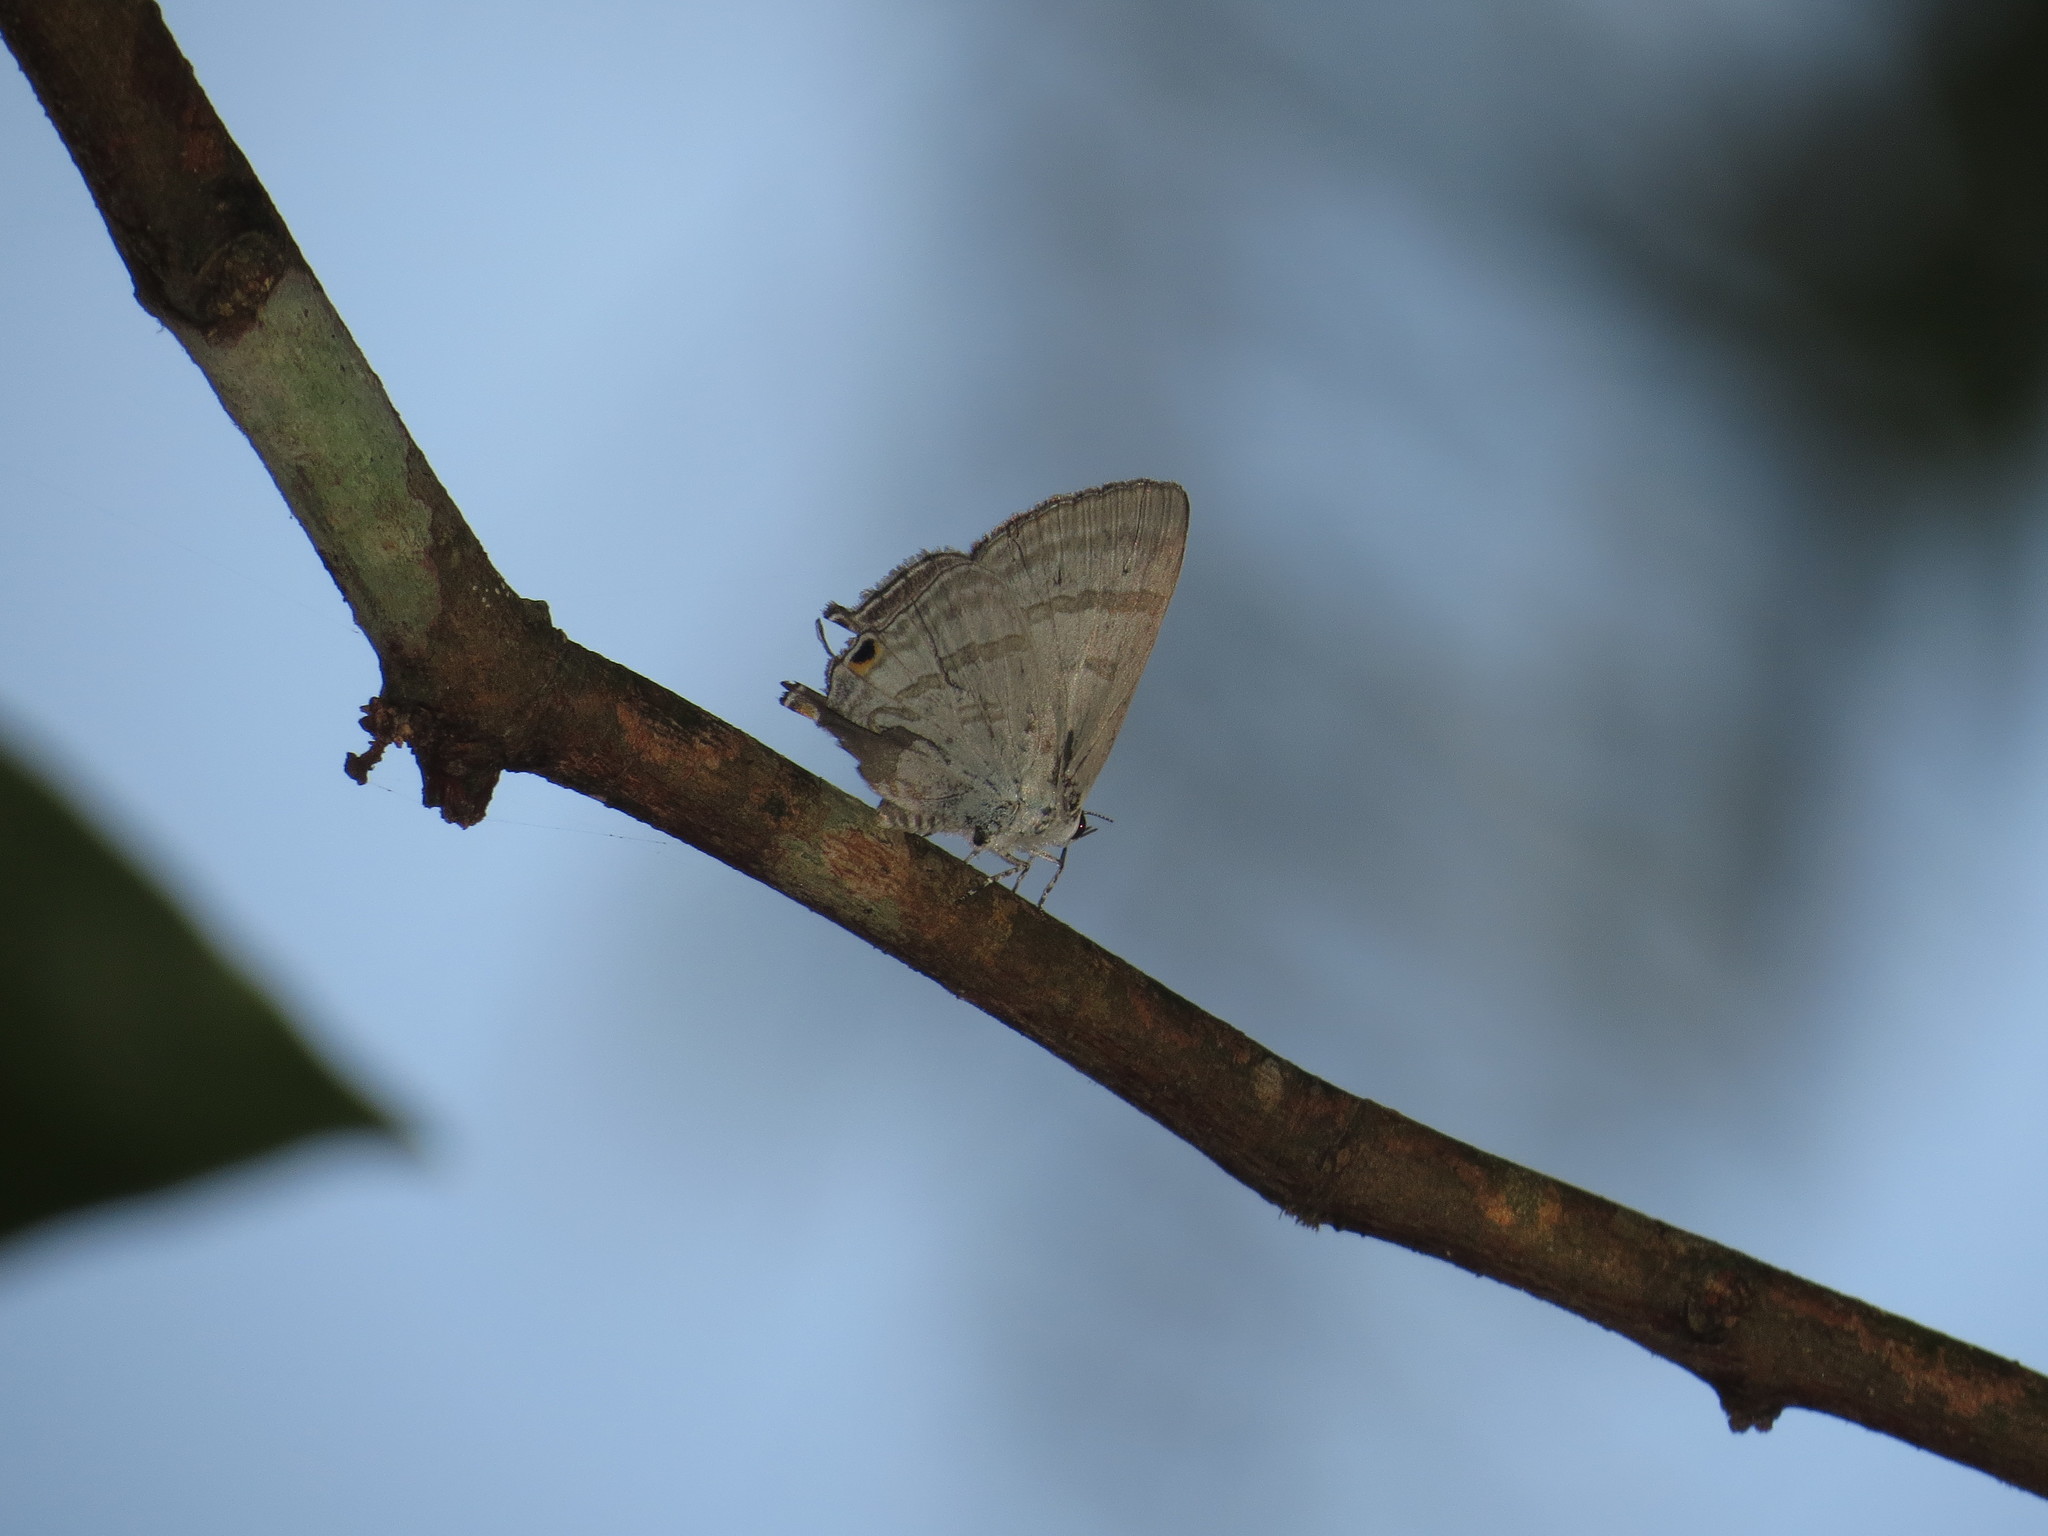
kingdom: Animalia
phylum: Arthropoda
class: Insecta
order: Lepidoptera
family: Lycaenidae
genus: Hypolycaena
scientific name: Hypolycaena phorbas
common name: Black-spotted flash
